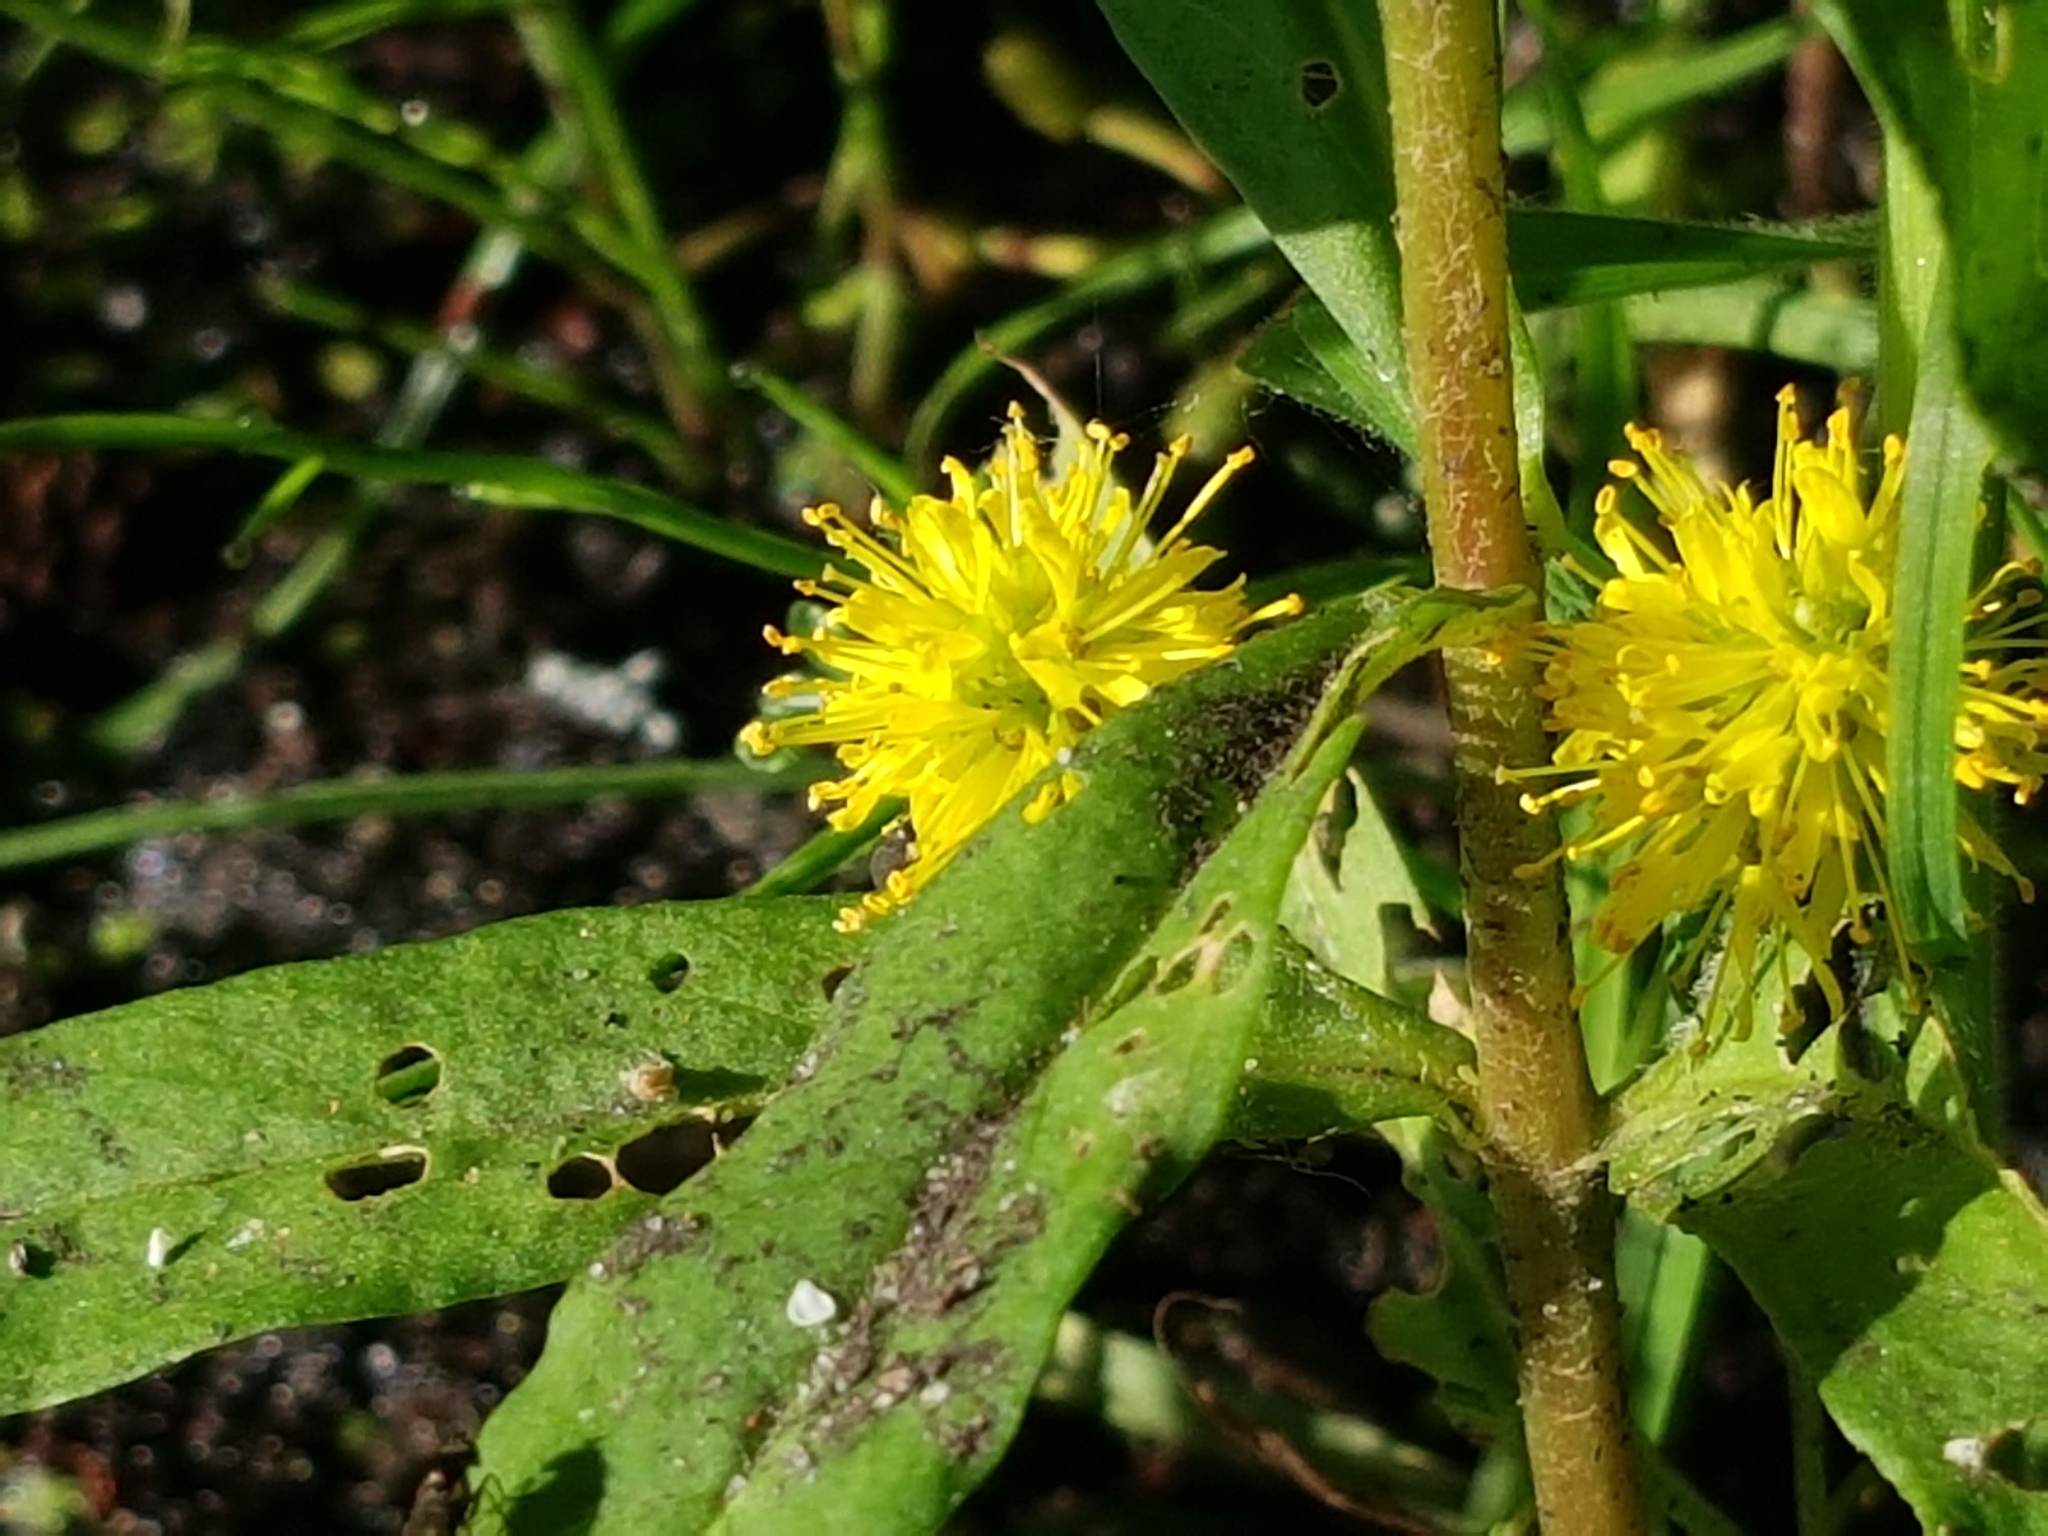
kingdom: Plantae
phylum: Tracheophyta
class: Magnoliopsida
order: Ericales
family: Primulaceae
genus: Lysimachia
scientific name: Lysimachia thyrsiflora
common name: Tufted loosestrife
